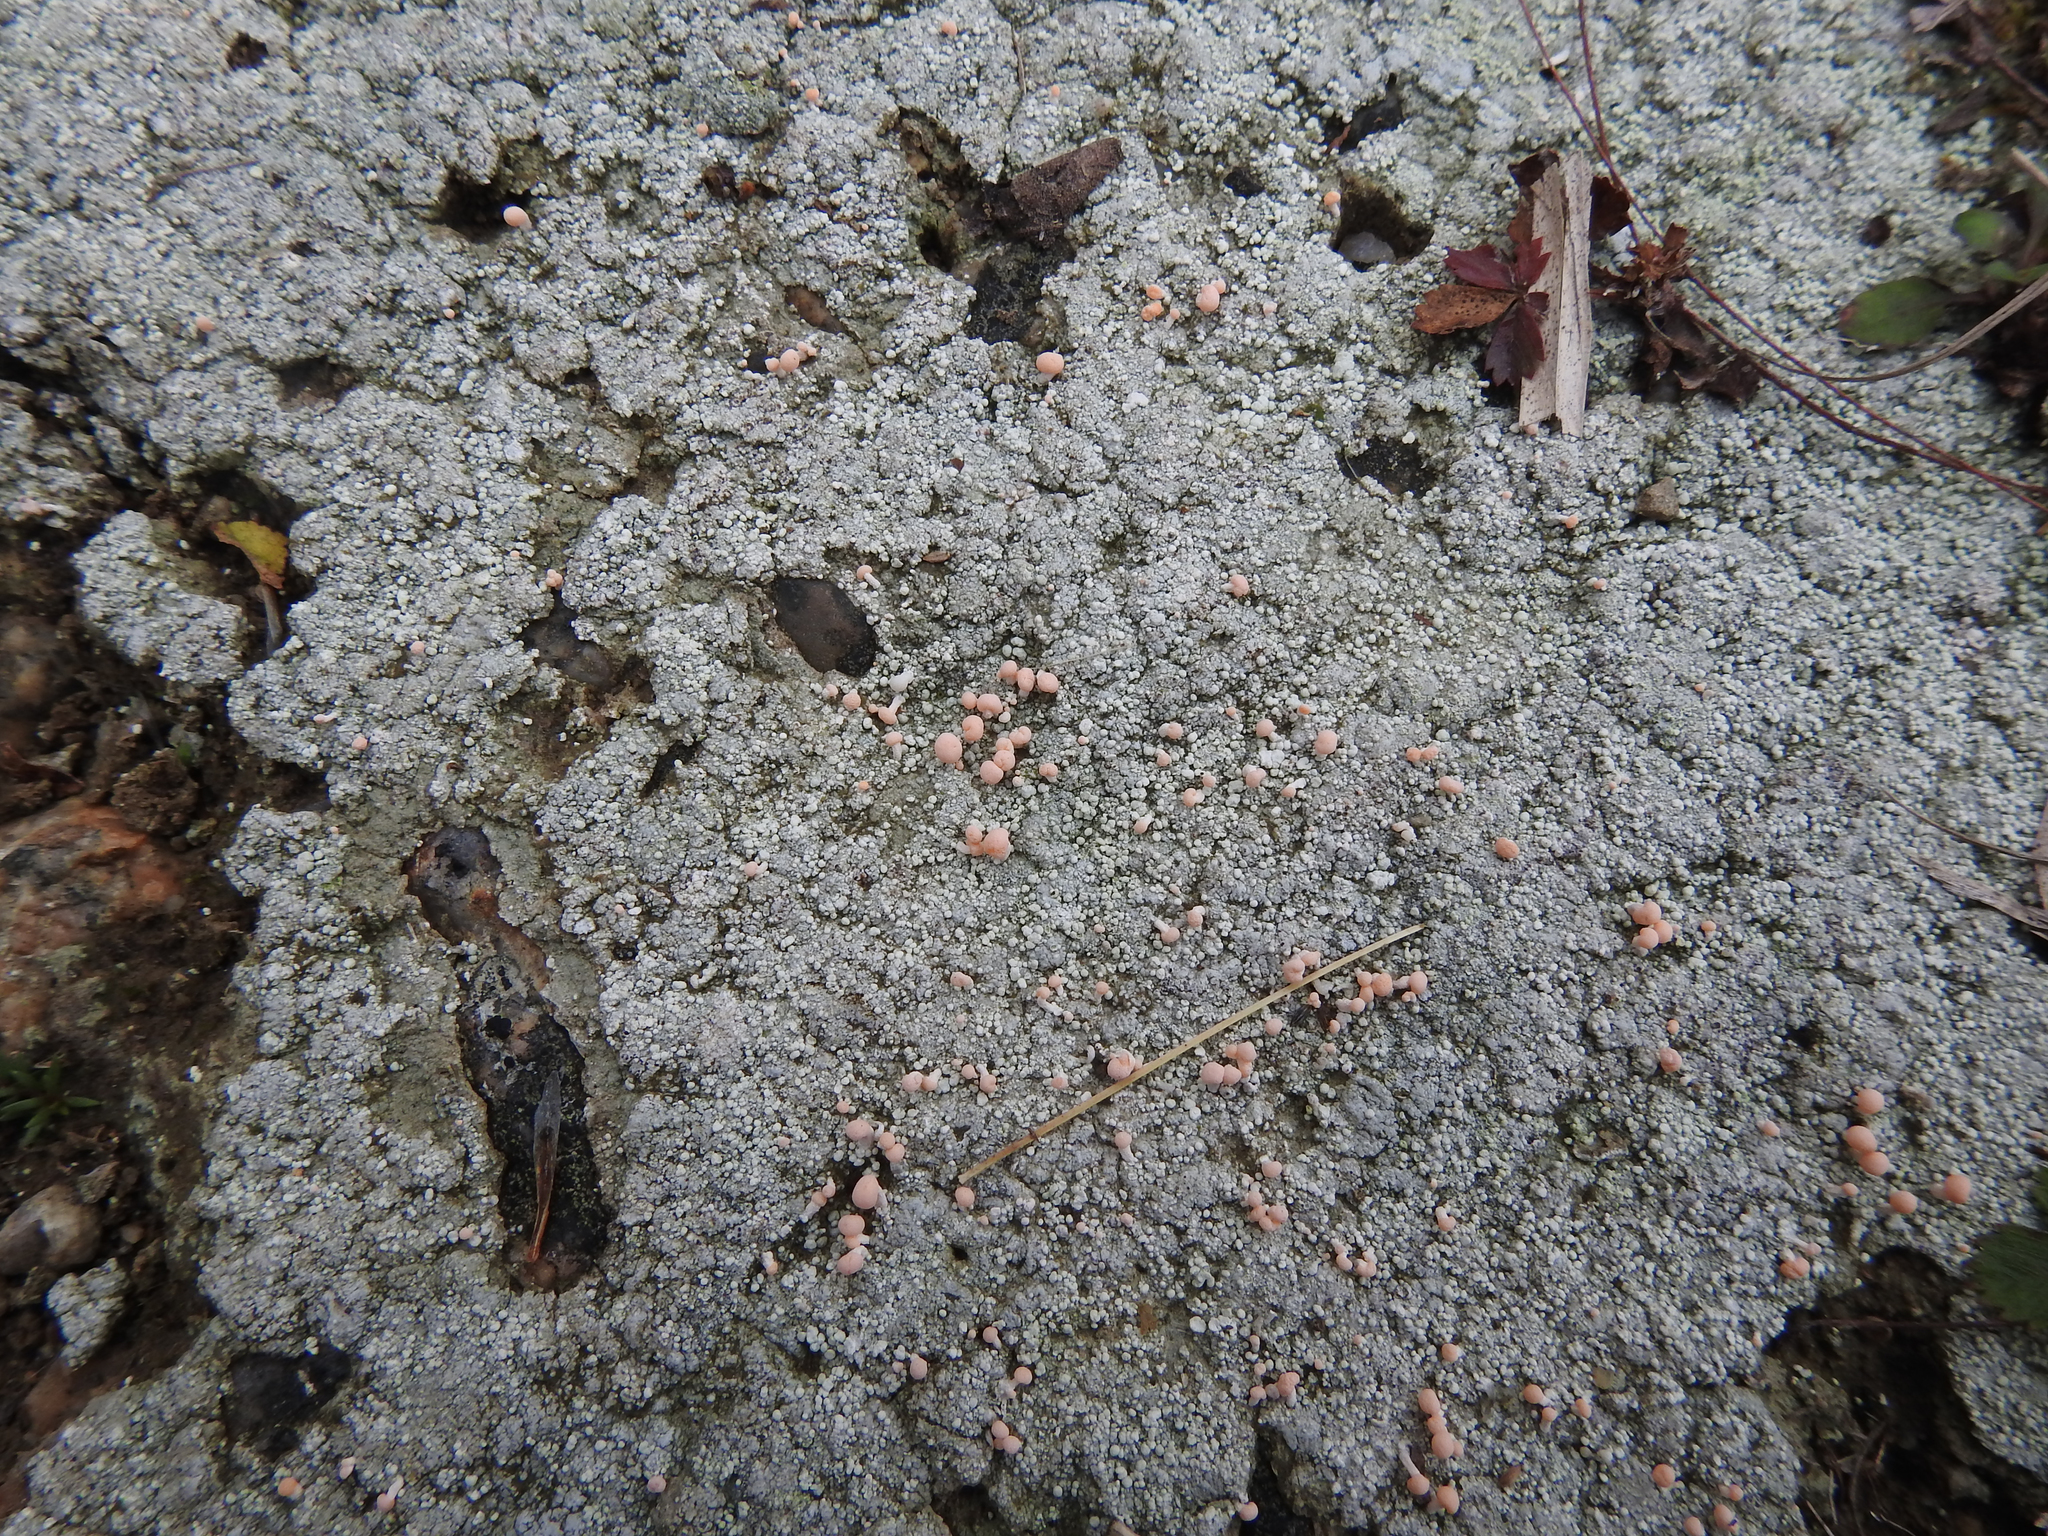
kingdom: Fungi
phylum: Ascomycota
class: Lecanoromycetes
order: Pertusariales
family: Icmadophilaceae
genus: Dibaeis
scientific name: Dibaeis baeomyces
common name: Pink earth lichen
